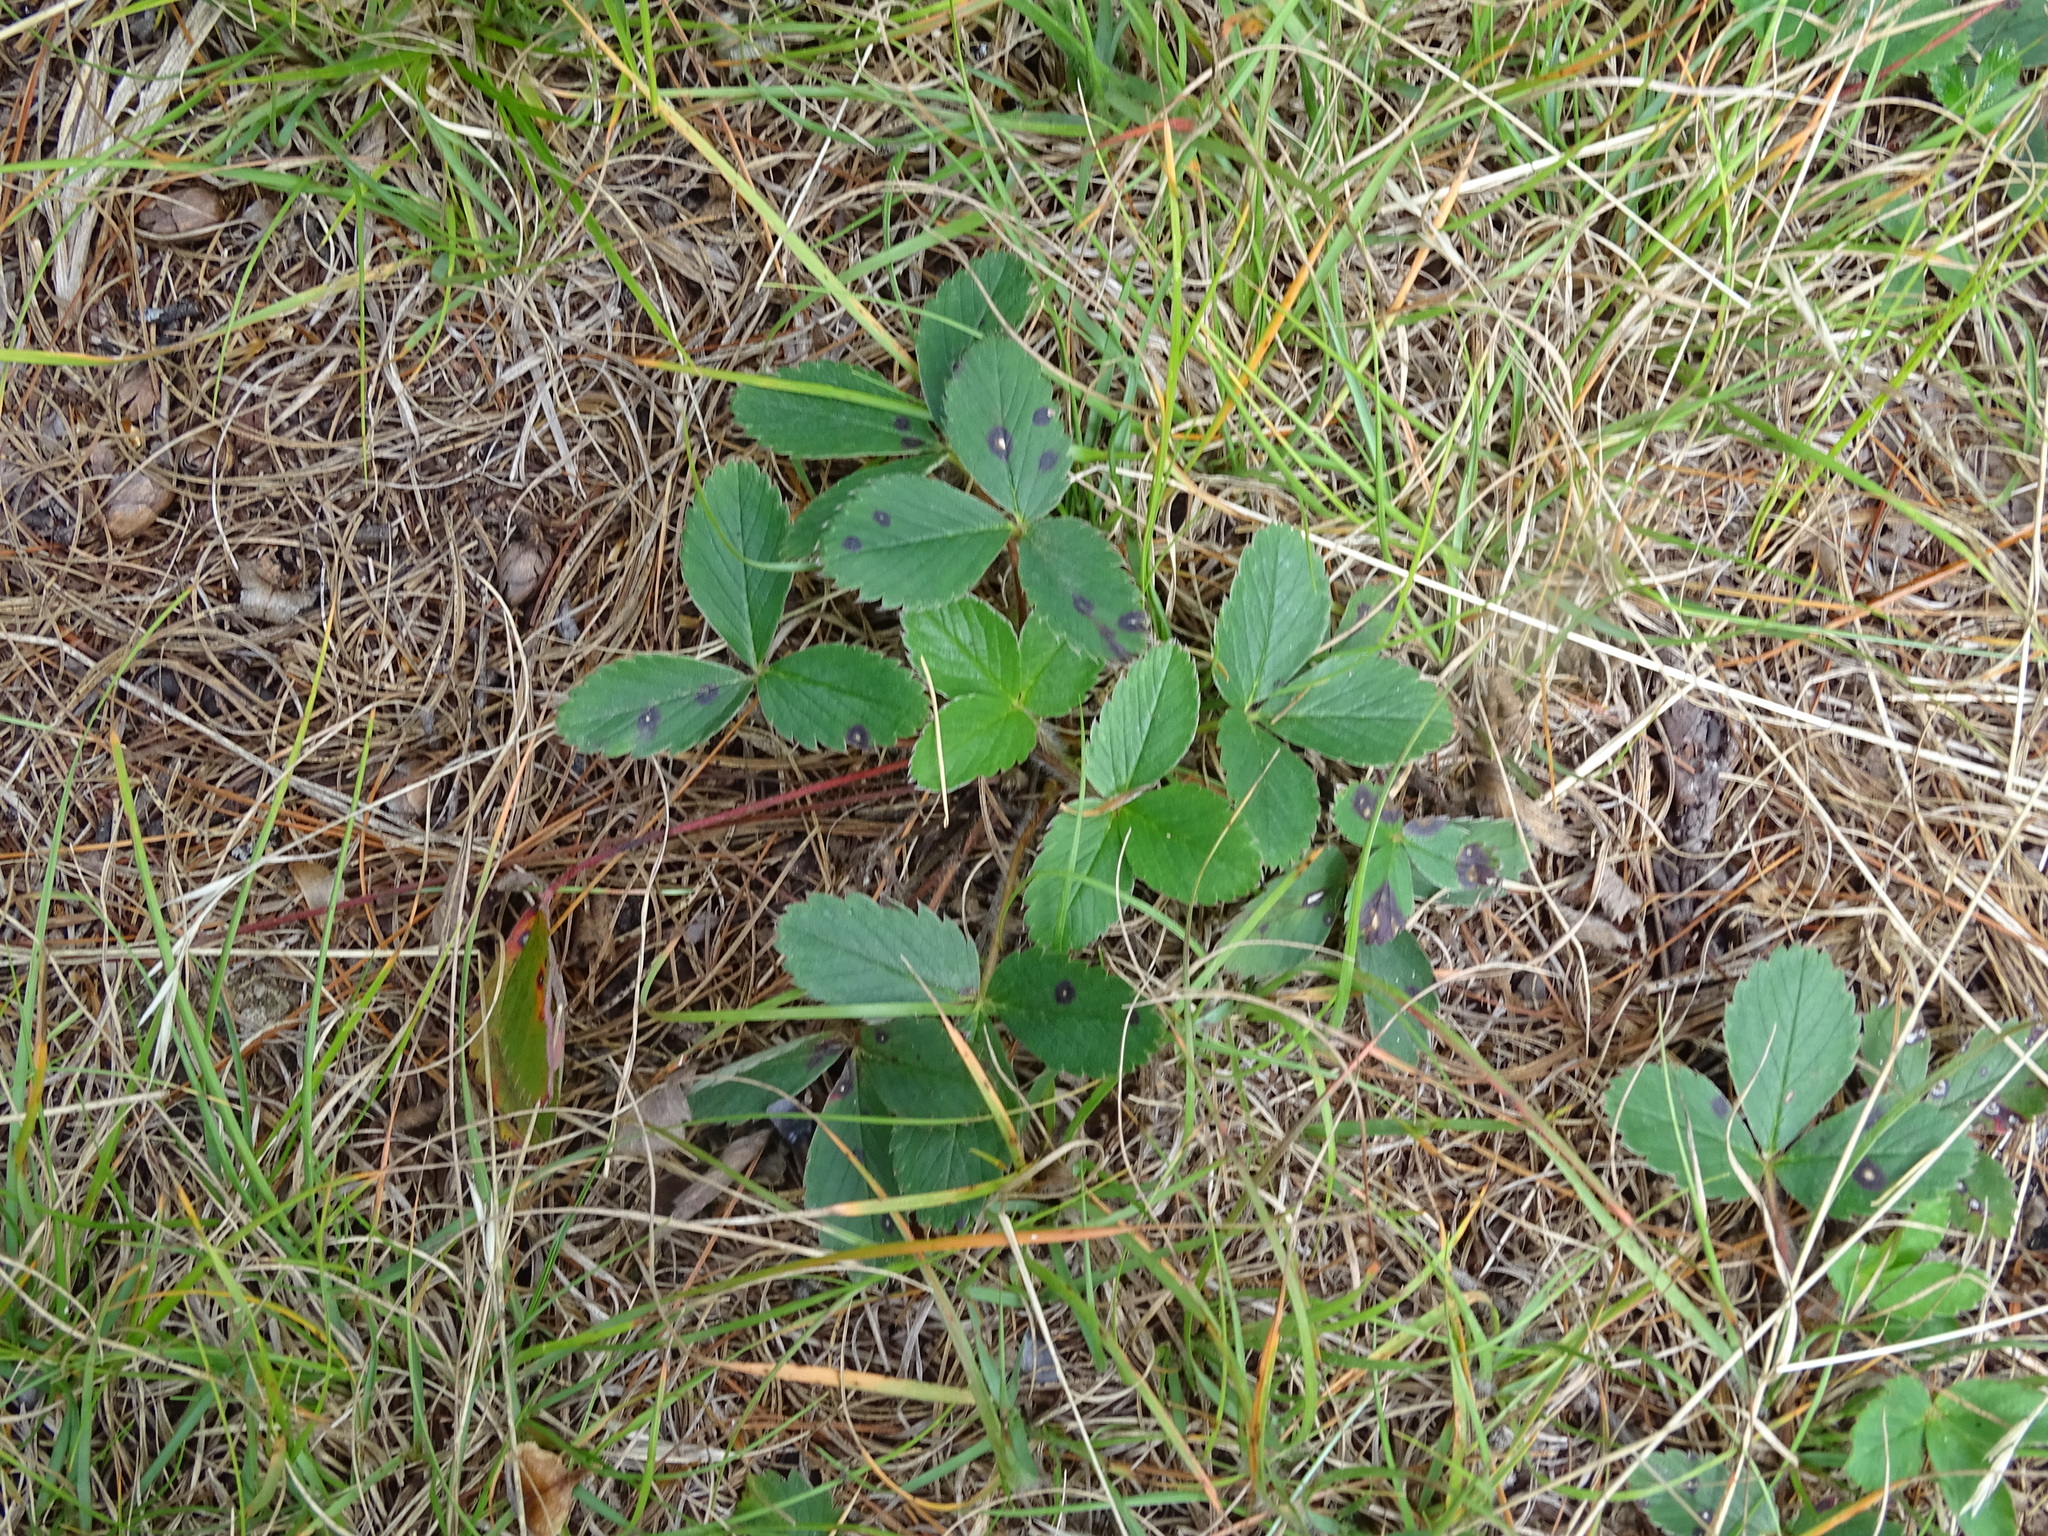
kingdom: Plantae
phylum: Tracheophyta
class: Magnoliopsida
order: Rosales
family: Rosaceae
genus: Fragaria
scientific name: Fragaria virginiana
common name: Thickleaved wild strawberry
